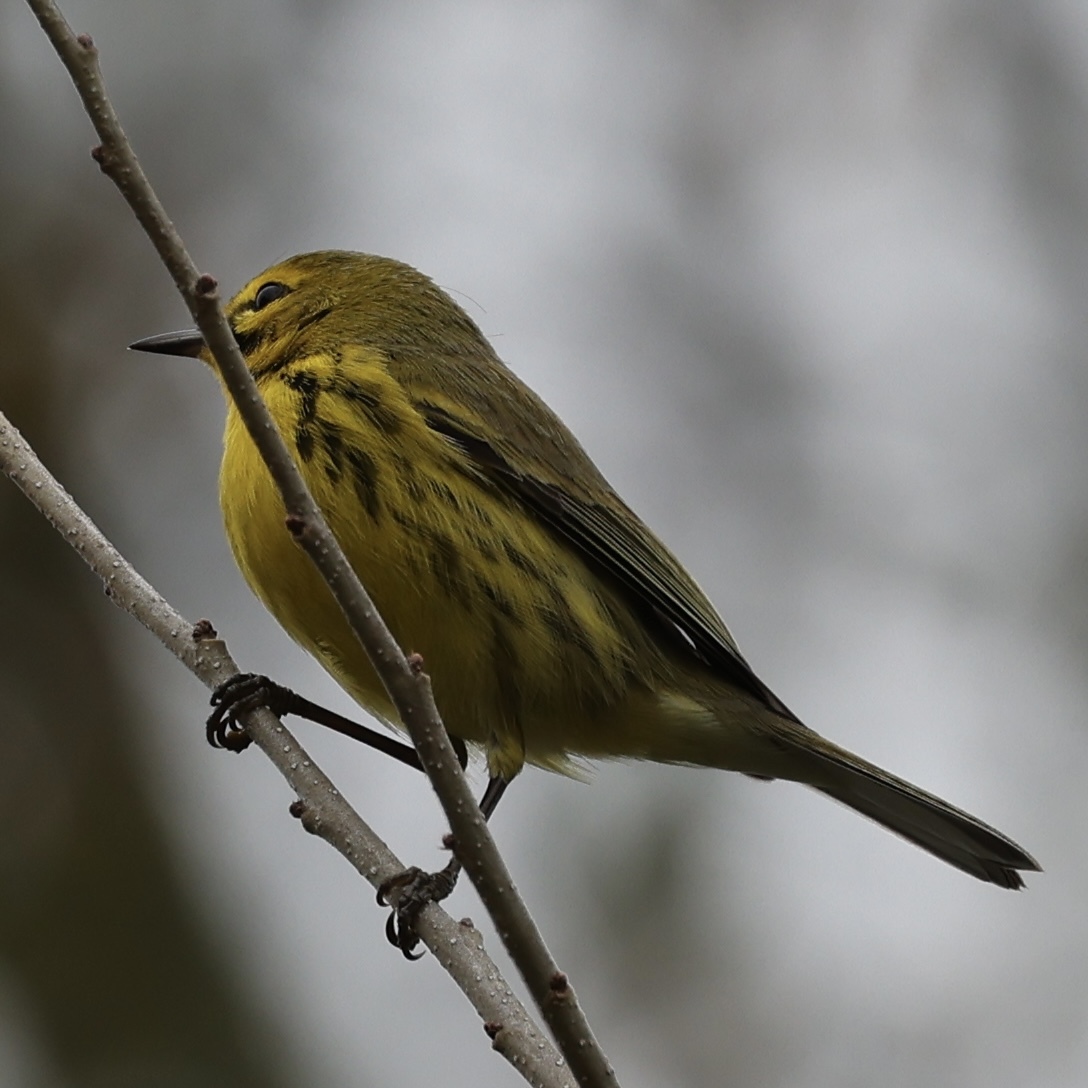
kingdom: Animalia
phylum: Chordata
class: Aves
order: Passeriformes
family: Parulidae
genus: Setophaga
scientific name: Setophaga discolor
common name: Prairie warbler
